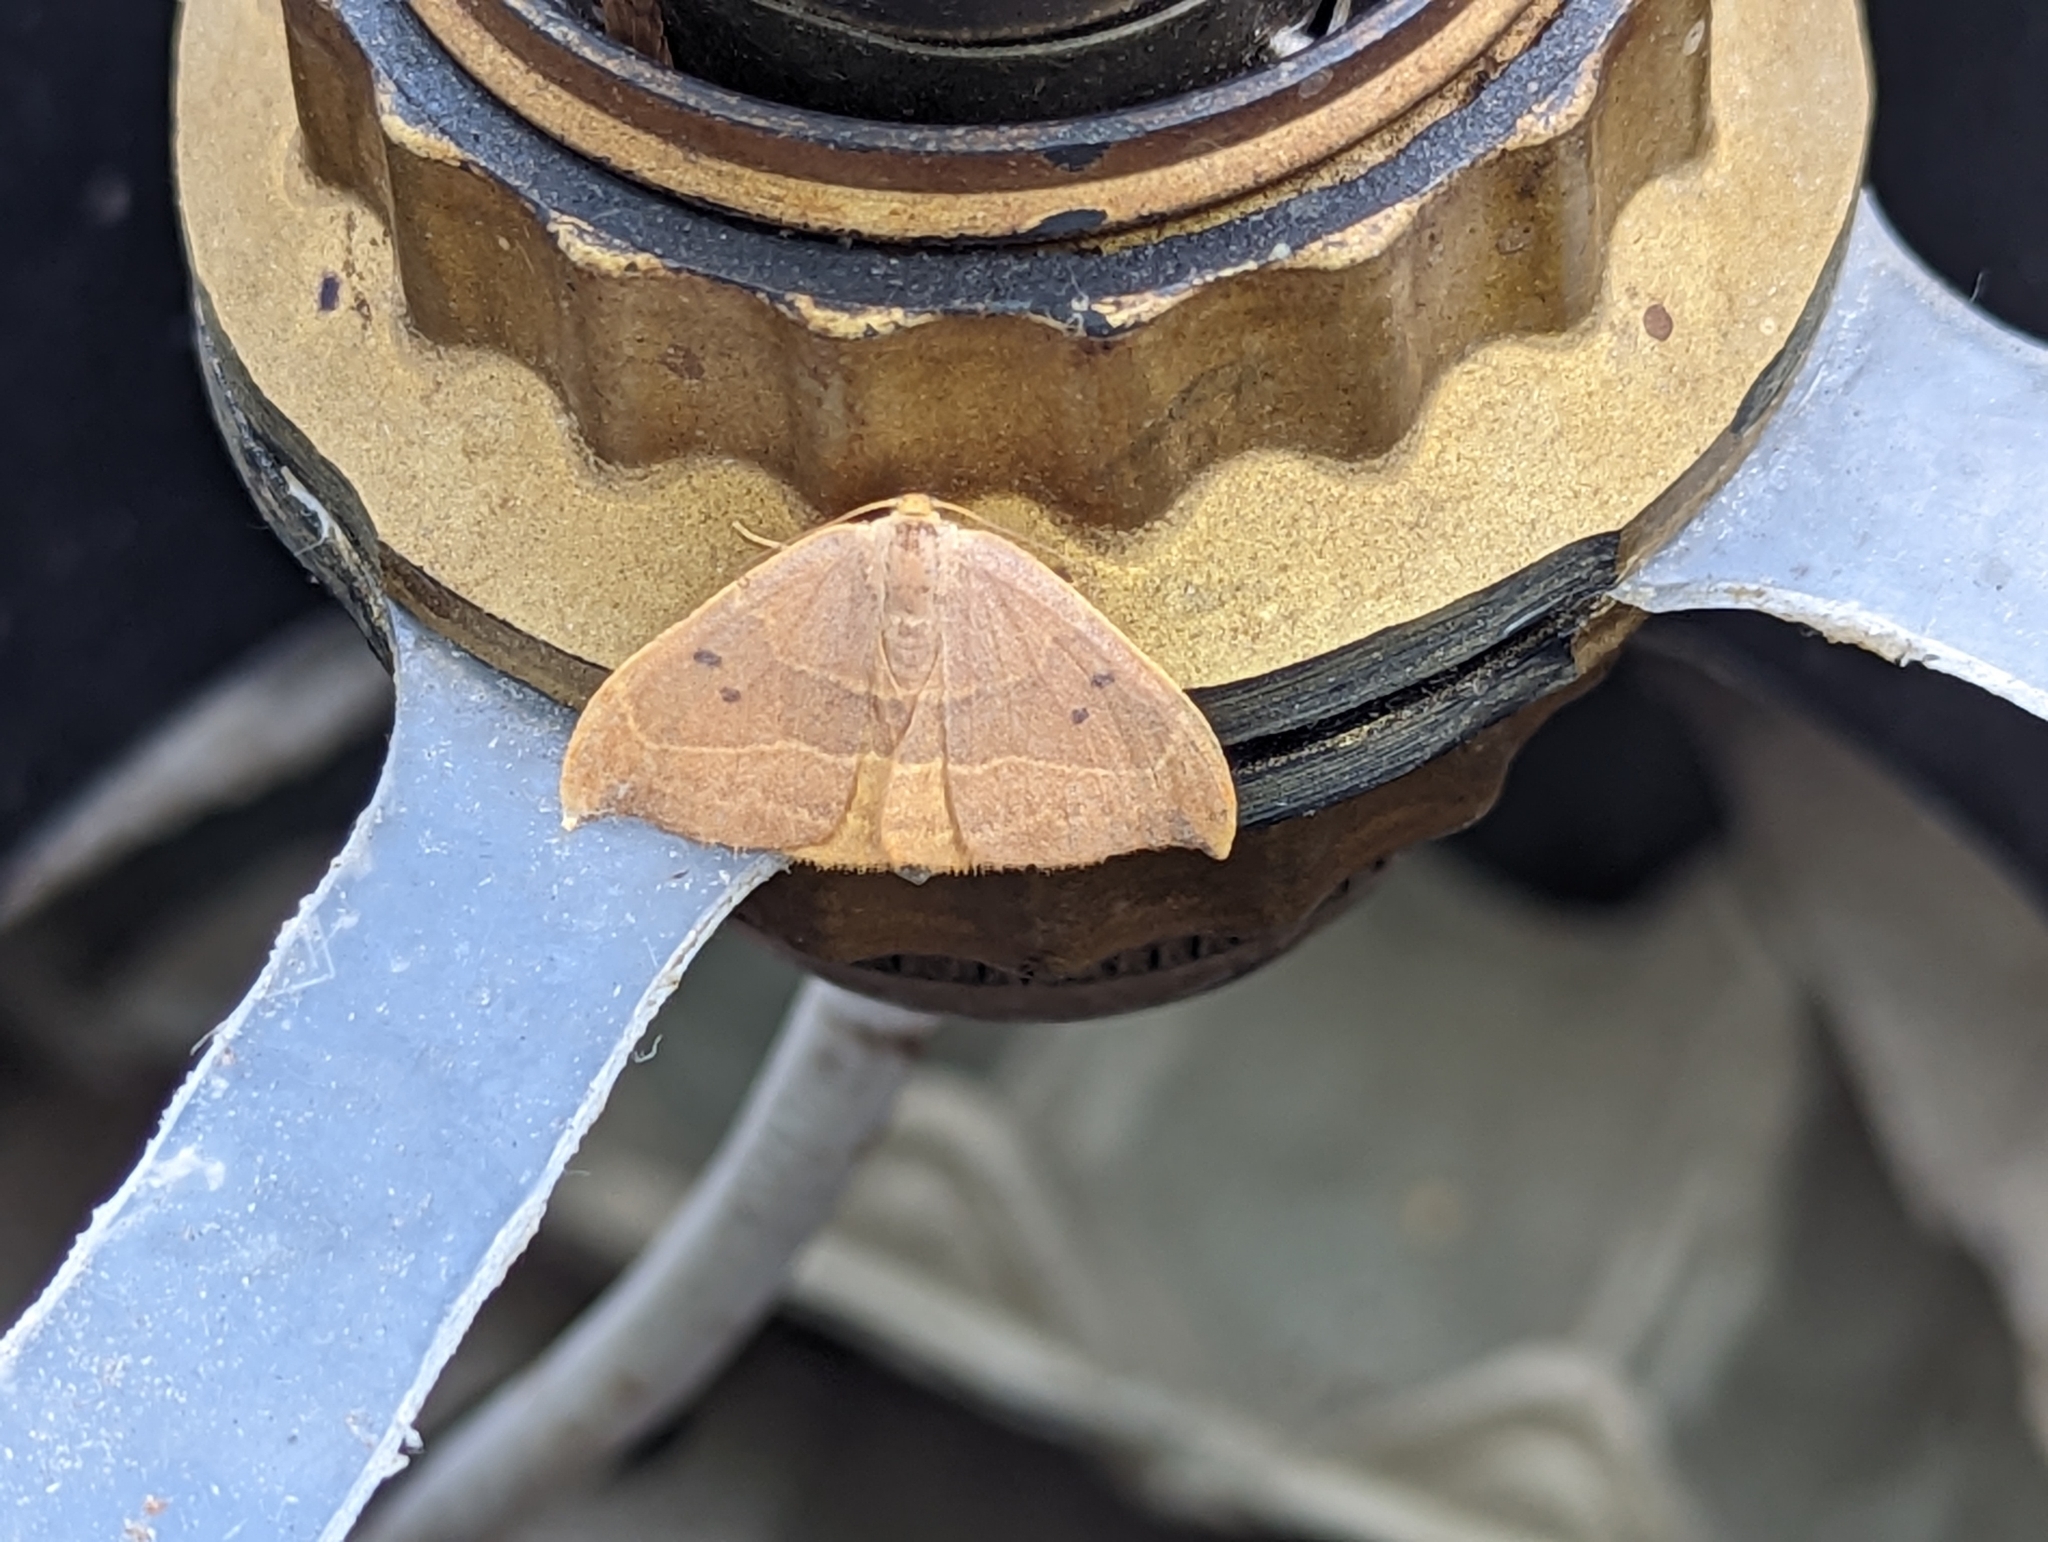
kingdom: Animalia
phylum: Arthropoda
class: Insecta
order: Lepidoptera
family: Drepanidae
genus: Watsonalla
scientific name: Watsonalla binaria
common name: Oak hook-tip
